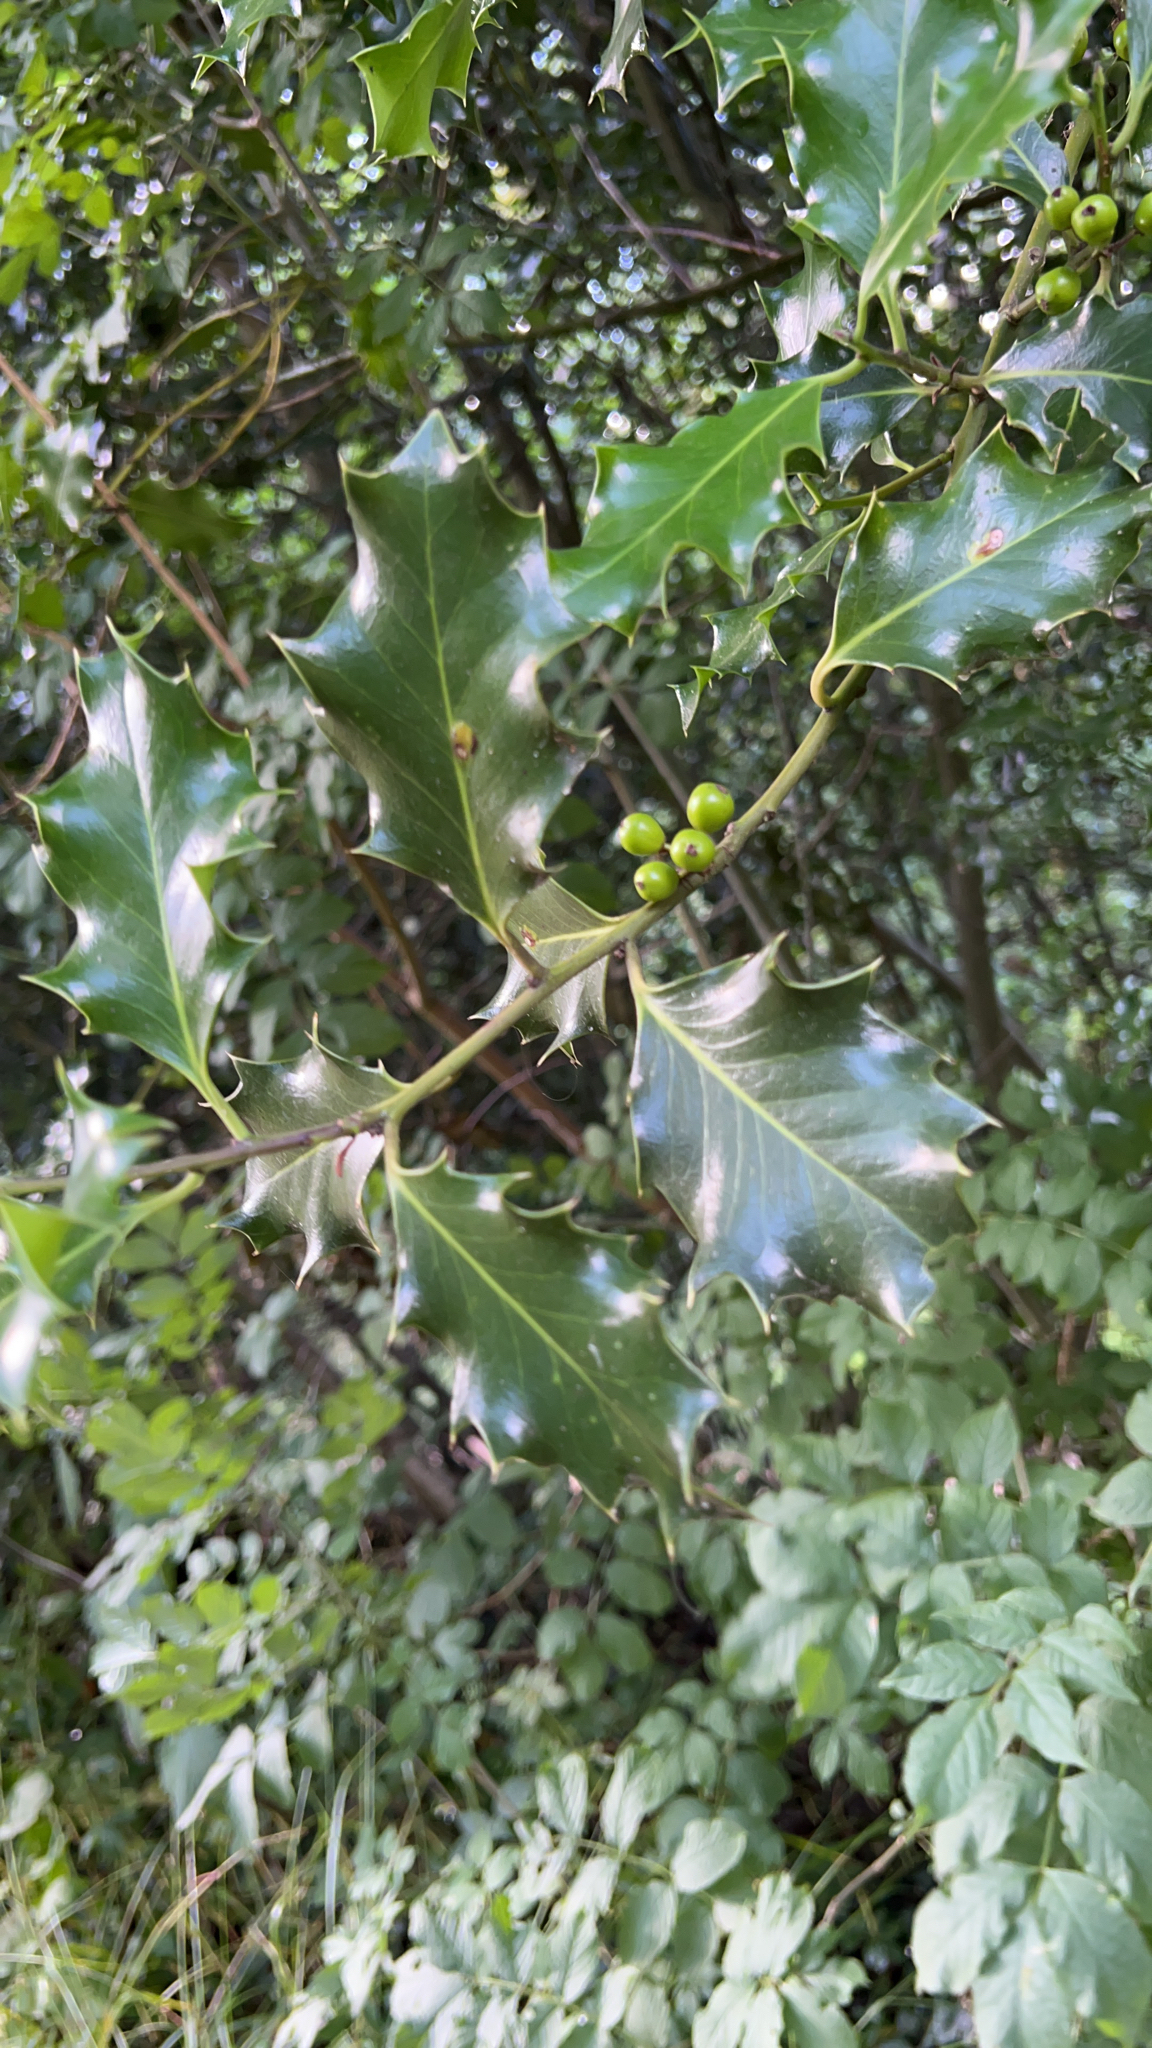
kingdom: Plantae
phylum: Tracheophyta
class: Magnoliopsida
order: Aquifoliales
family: Aquifoliaceae
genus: Ilex
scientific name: Ilex aquifolium
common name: English holly
